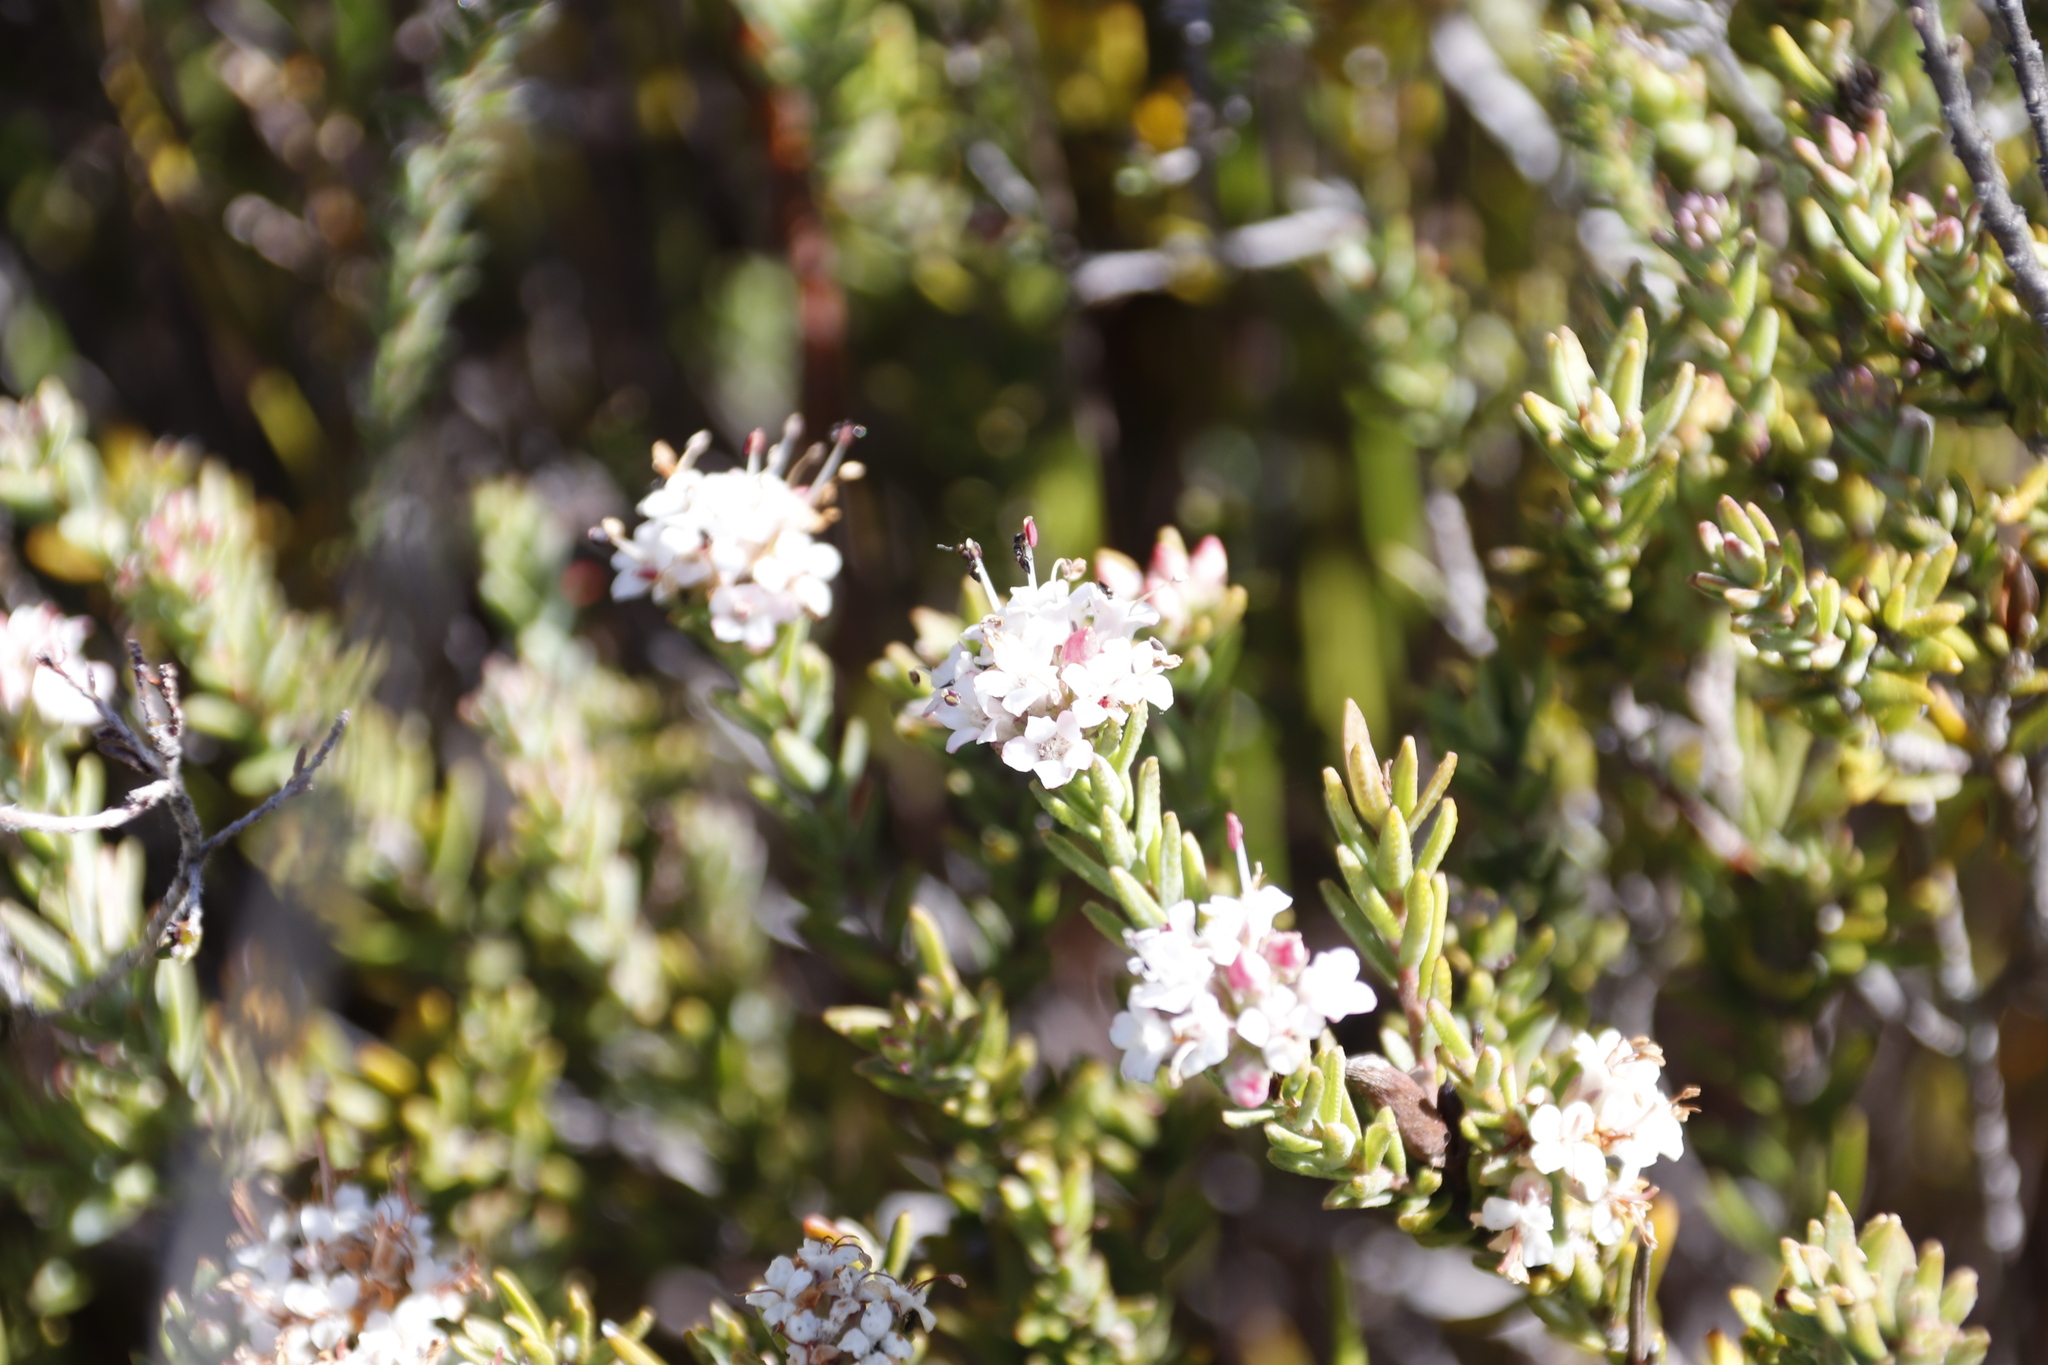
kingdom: Plantae
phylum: Tracheophyta
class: Magnoliopsida
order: Sapindales
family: Rutaceae
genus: Macrostylis
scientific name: Macrostylis villosa
